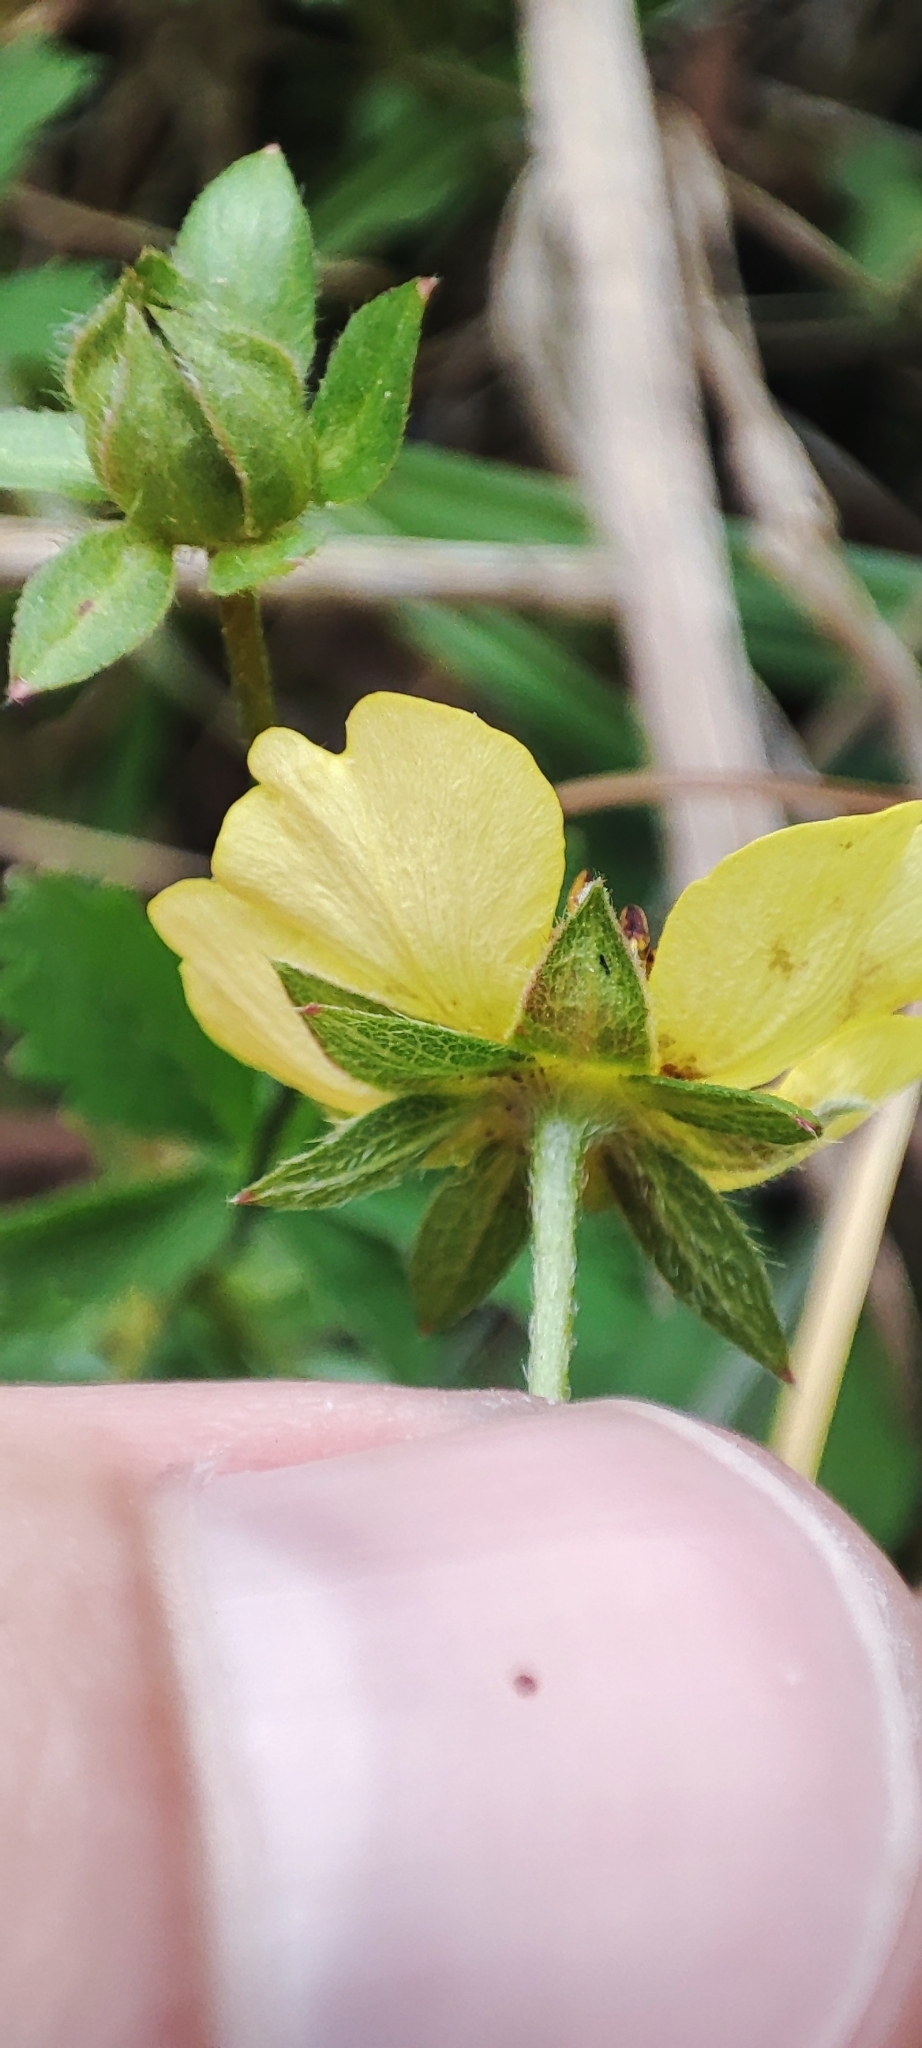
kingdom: Plantae
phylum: Tracheophyta
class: Magnoliopsida
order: Rosales
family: Rosaceae
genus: Potentilla
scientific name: Potentilla reptans
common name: Creeping cinquefoil
